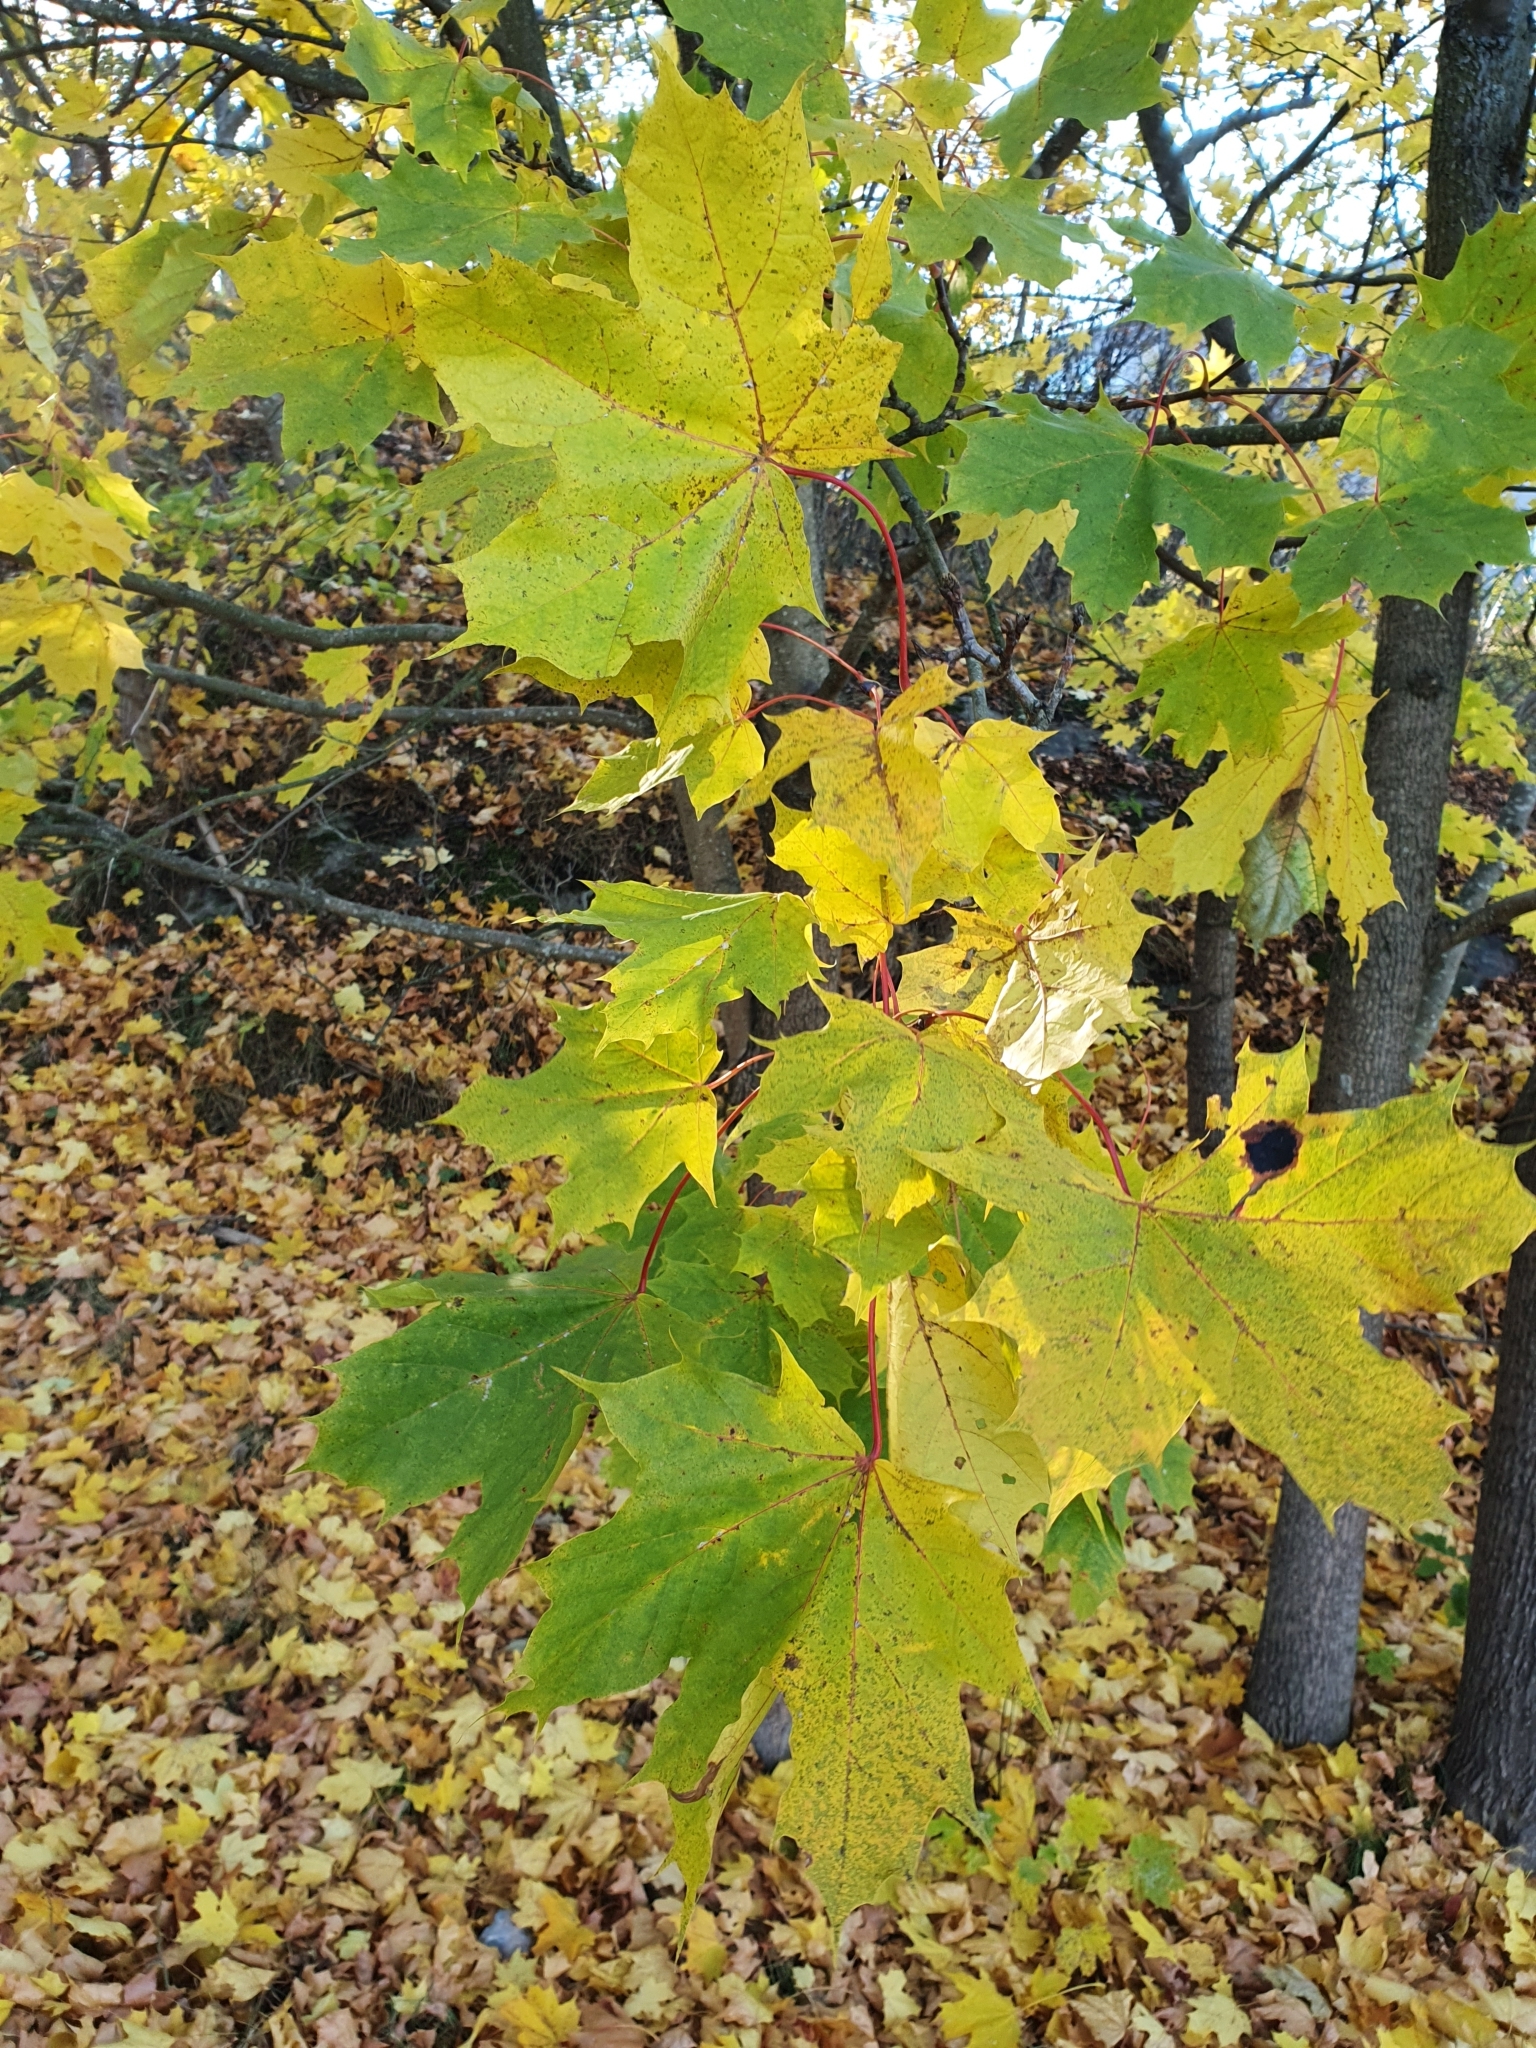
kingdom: Plantae
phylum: Tracheophyta
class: Magnoliopsida
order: Sapindales
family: Sapindaceae
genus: Acer
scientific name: Acer platanoides
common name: Norway maple
